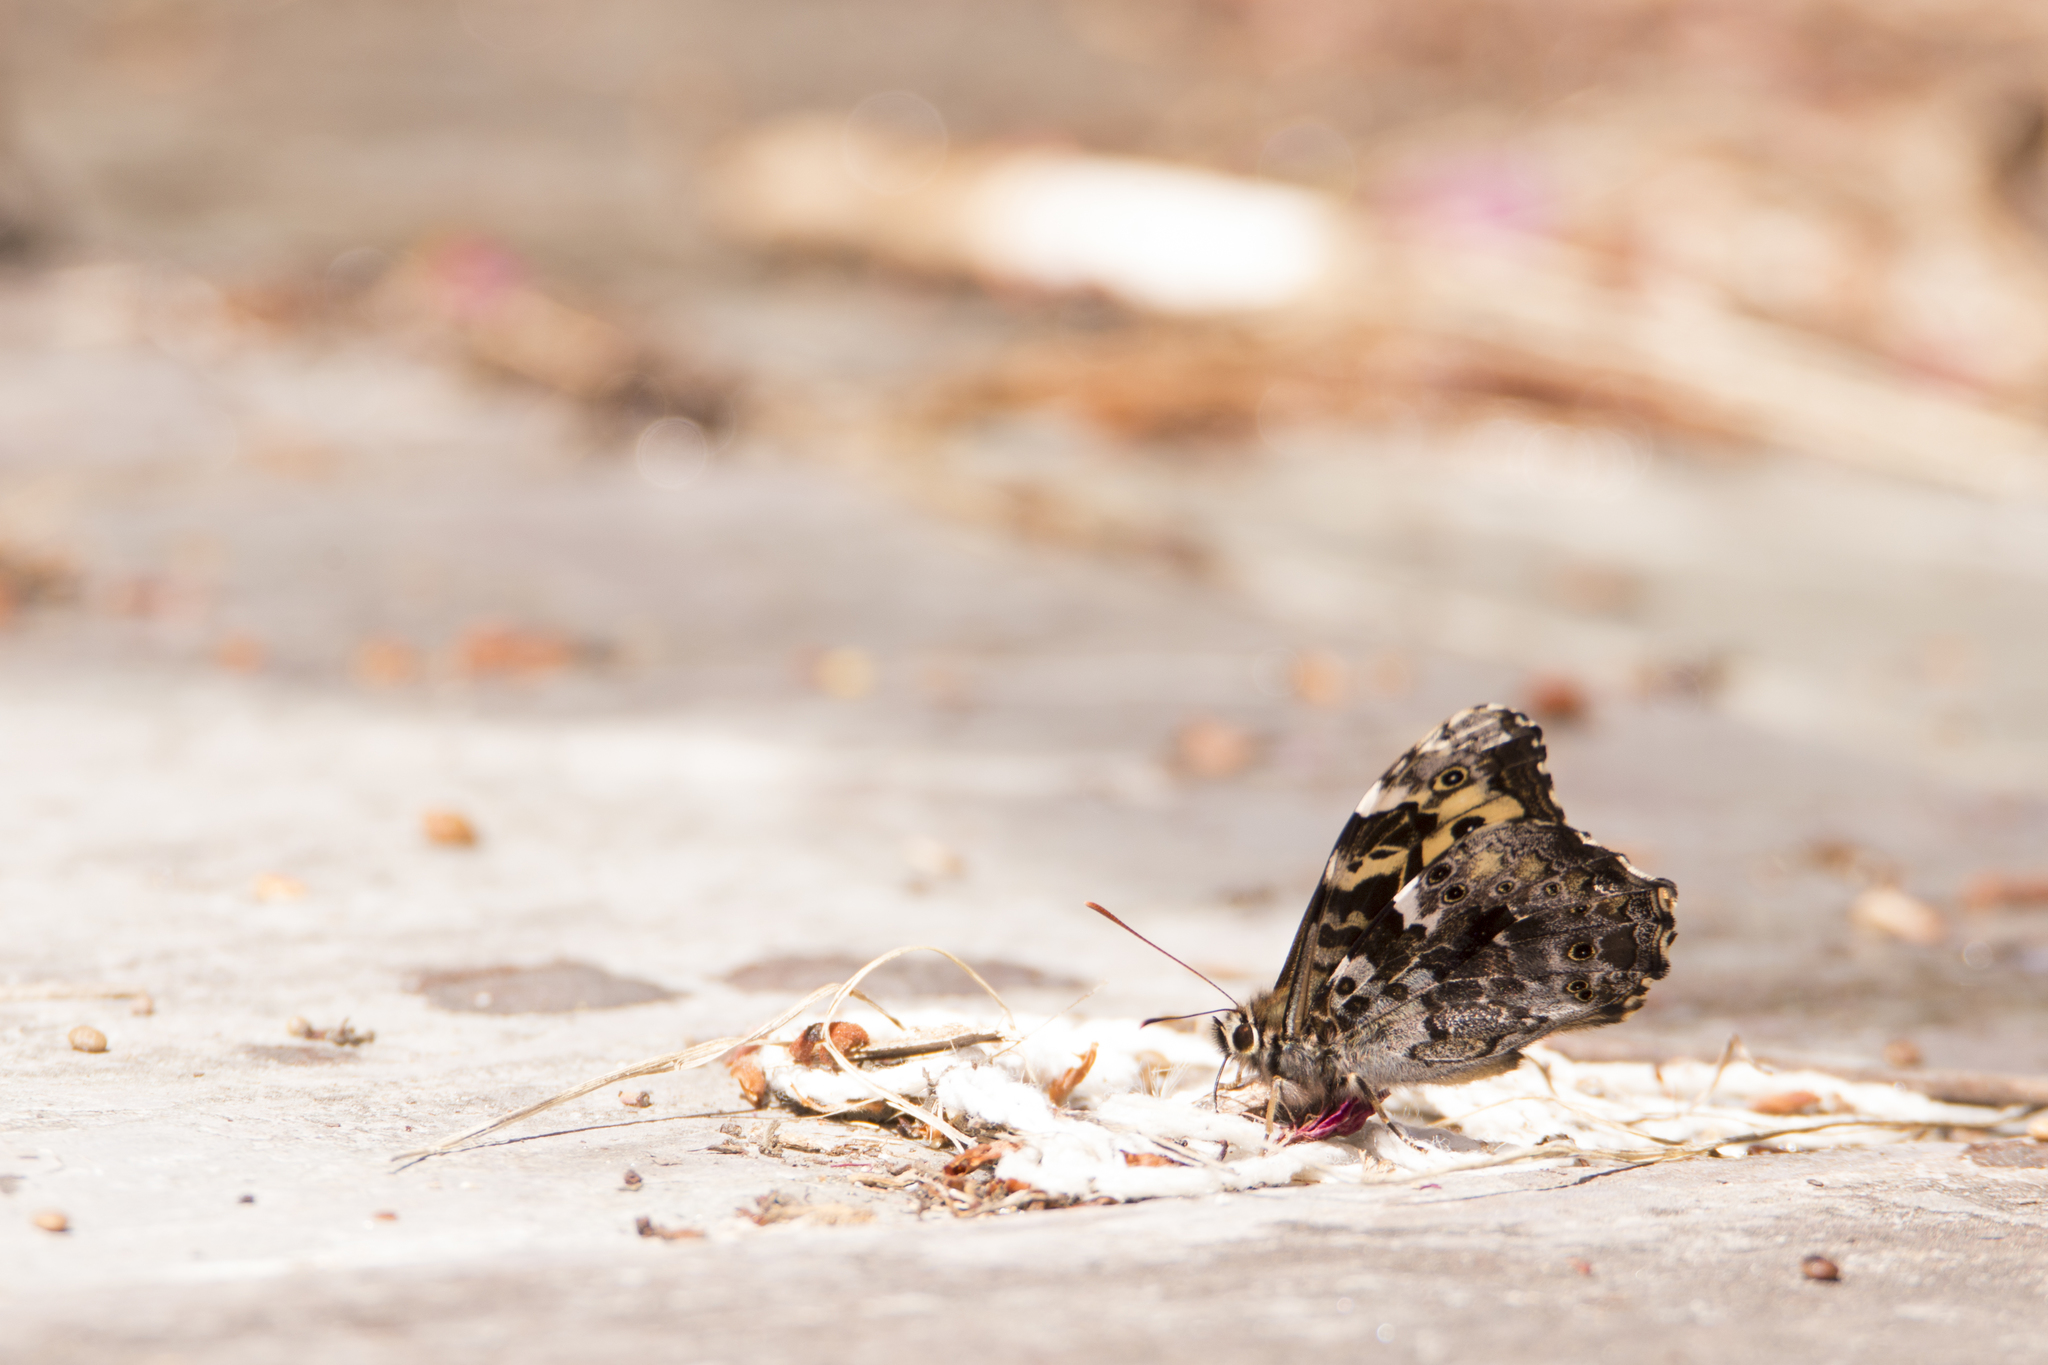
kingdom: Animalia
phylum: Arthropoda
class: Insecta
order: Lepidoptera
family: Nymphalidae
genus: Neope
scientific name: Neope bremeri
